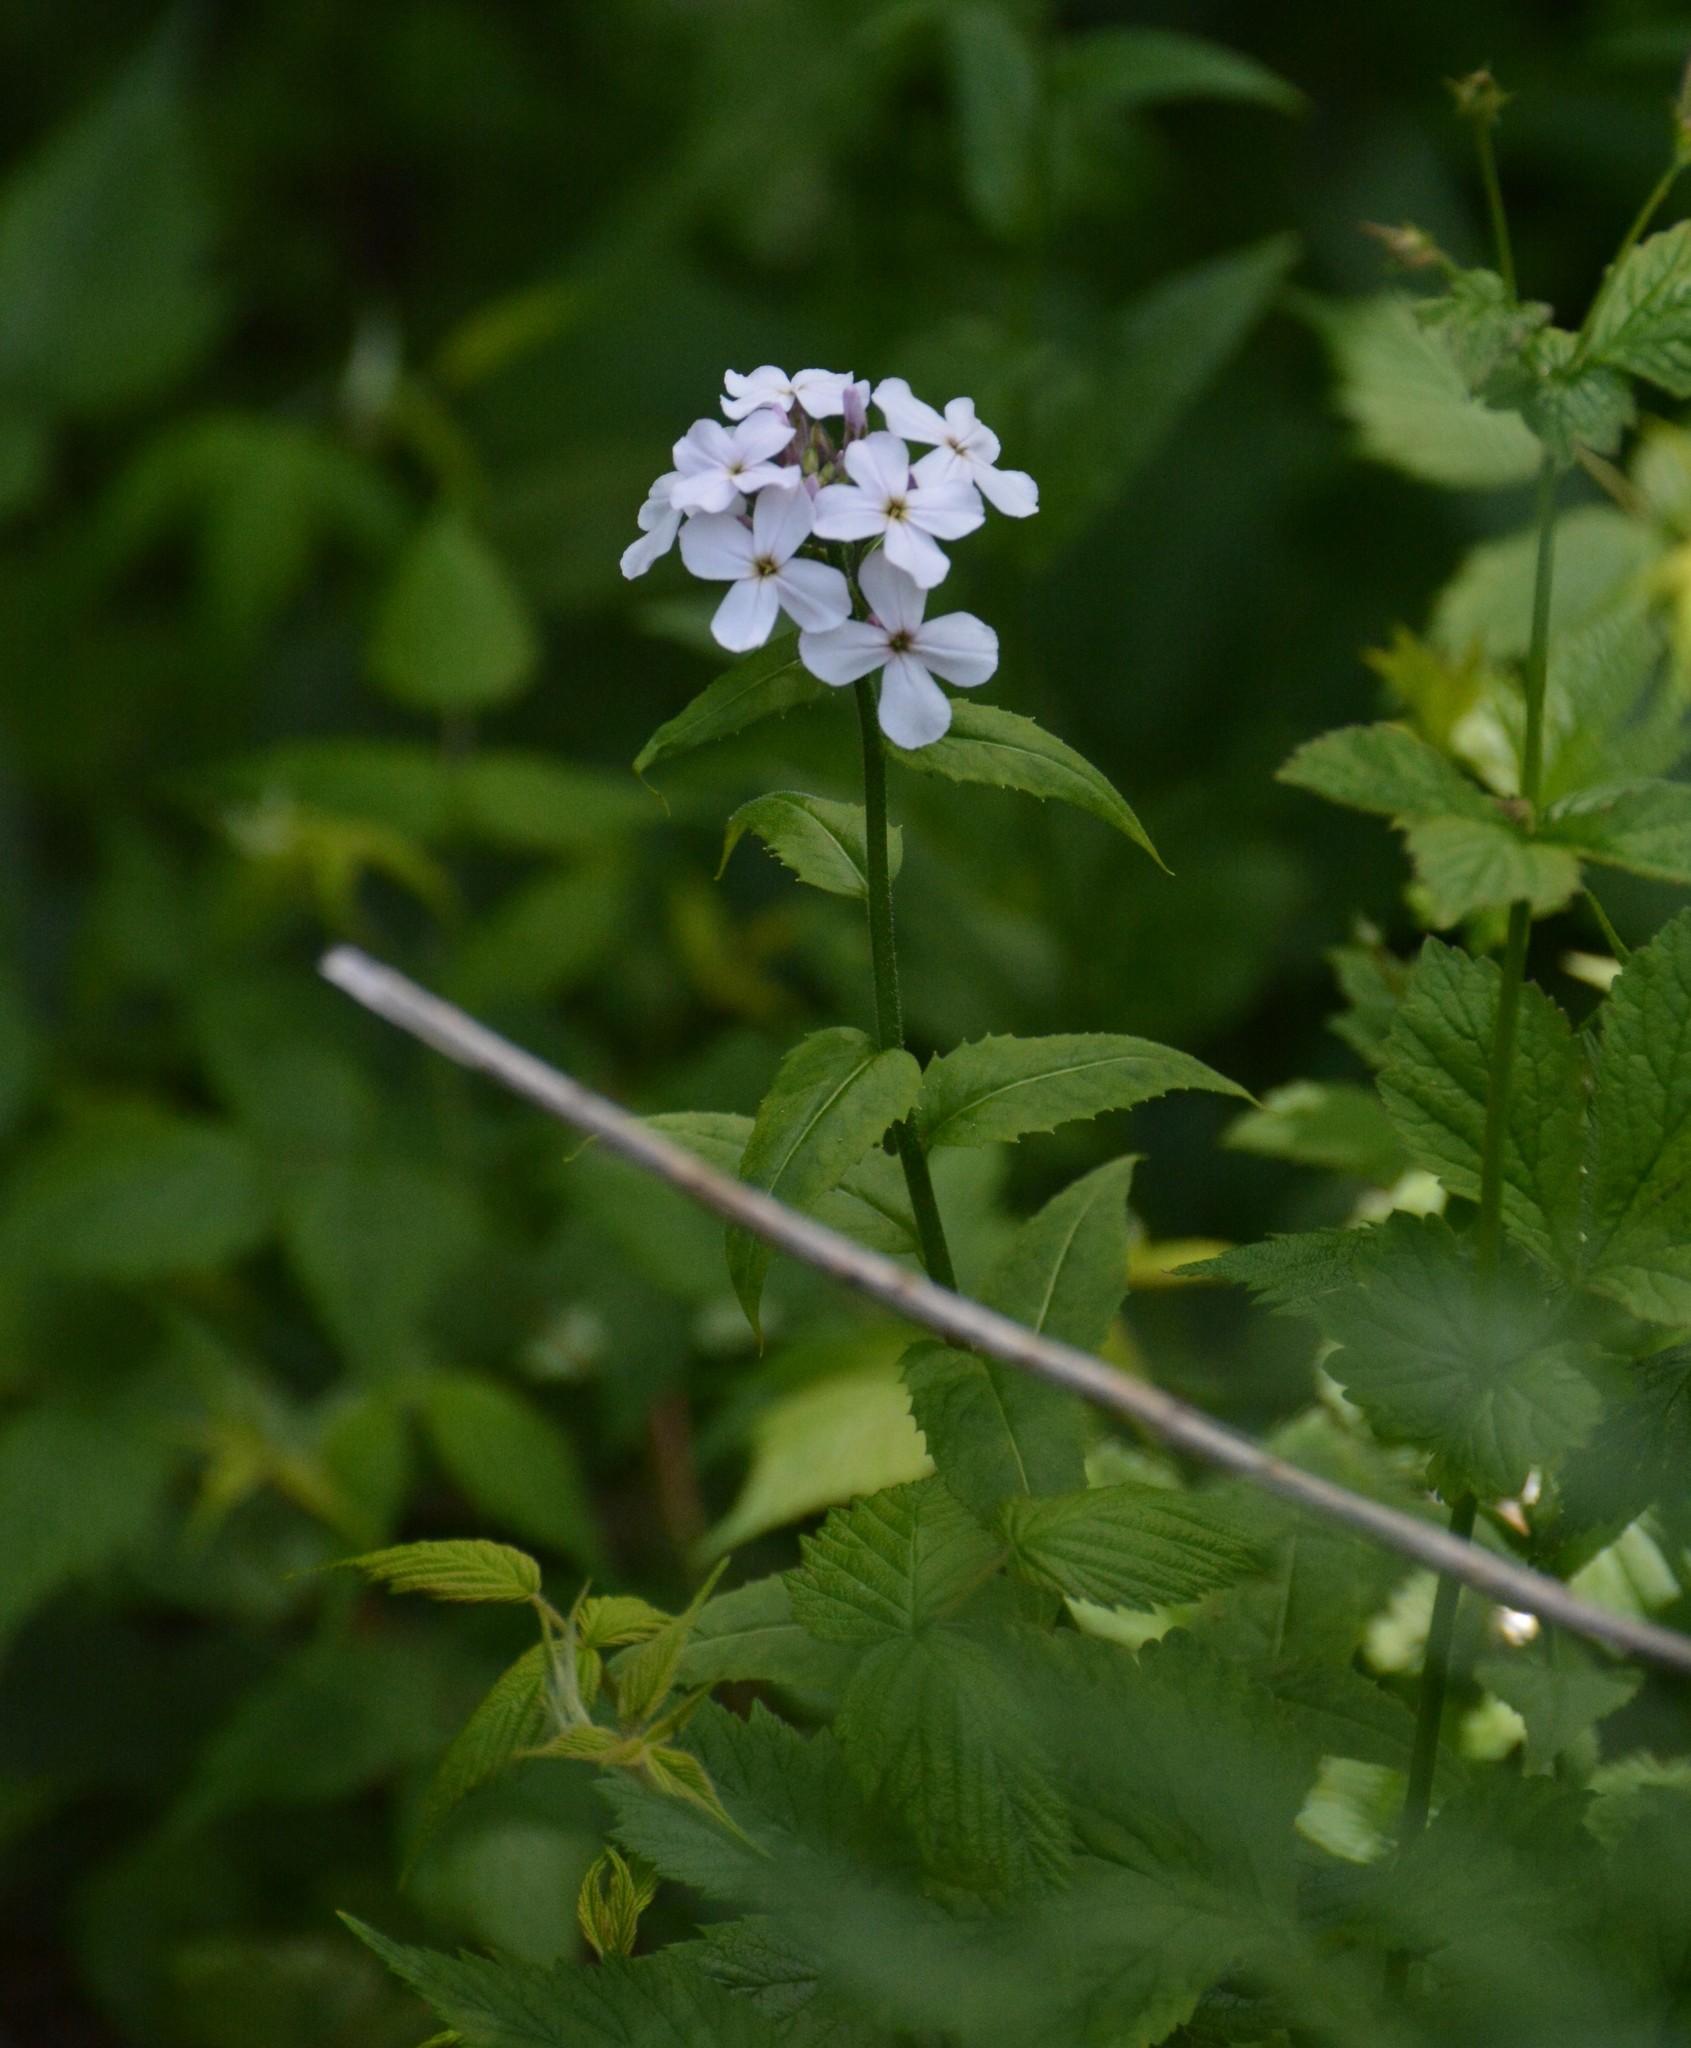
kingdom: Plantae
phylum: Tracheophyta
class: Magnoliopsida
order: Brassicales
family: Brassicaceae
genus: Hesperis
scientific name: Hesperis matronalis
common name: Dame's-violet
